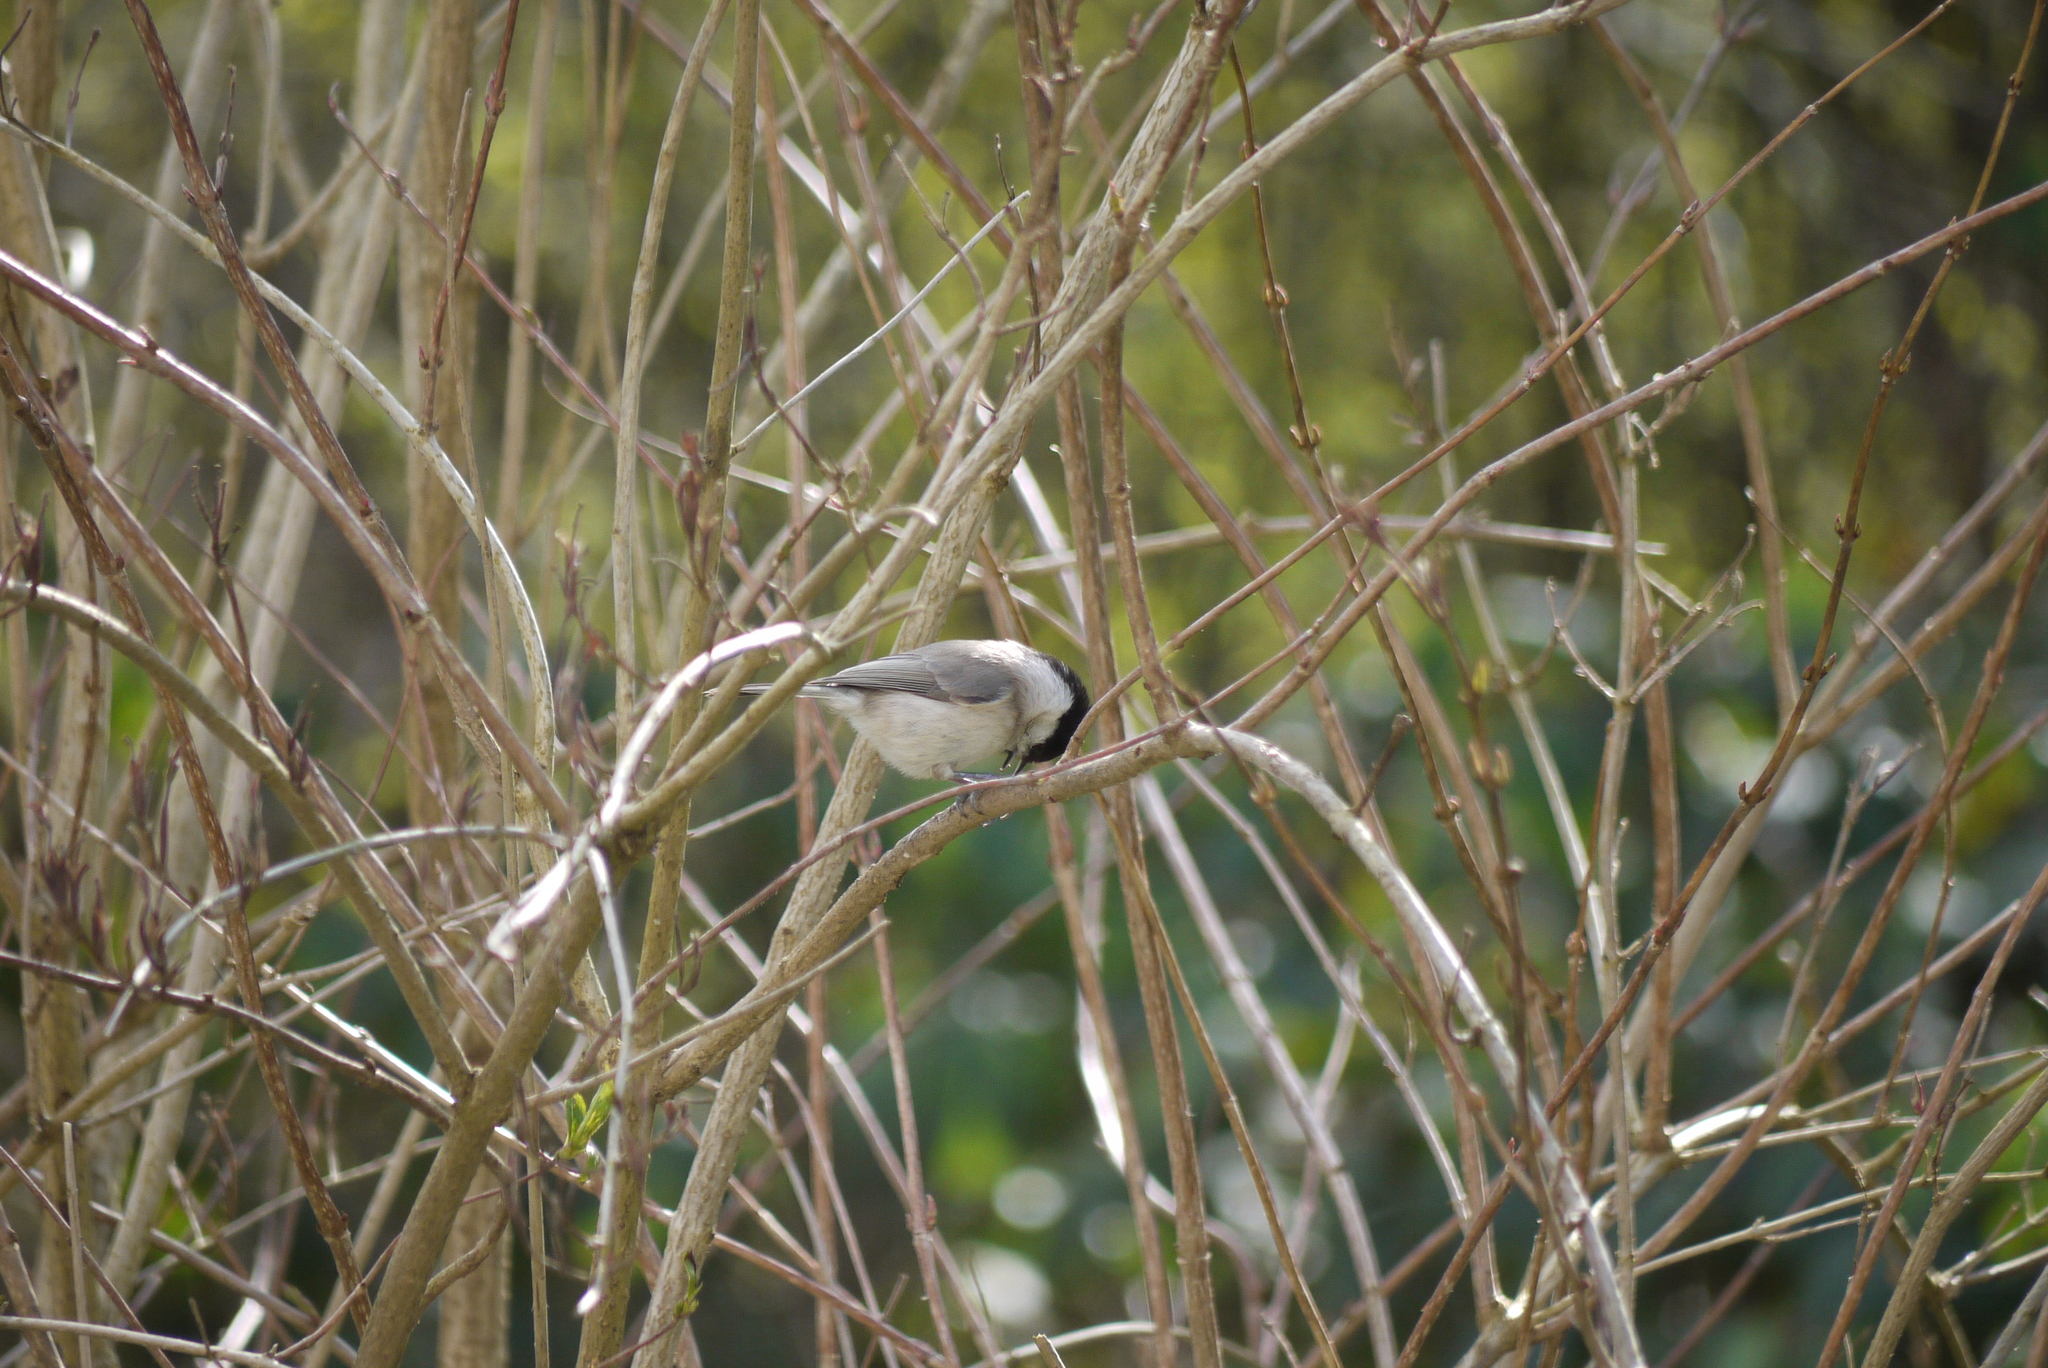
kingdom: Animalia
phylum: Chordata
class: Aves
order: Passeriformes
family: Paridae
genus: Poecile
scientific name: Poecile palustris
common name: Marsh tit
